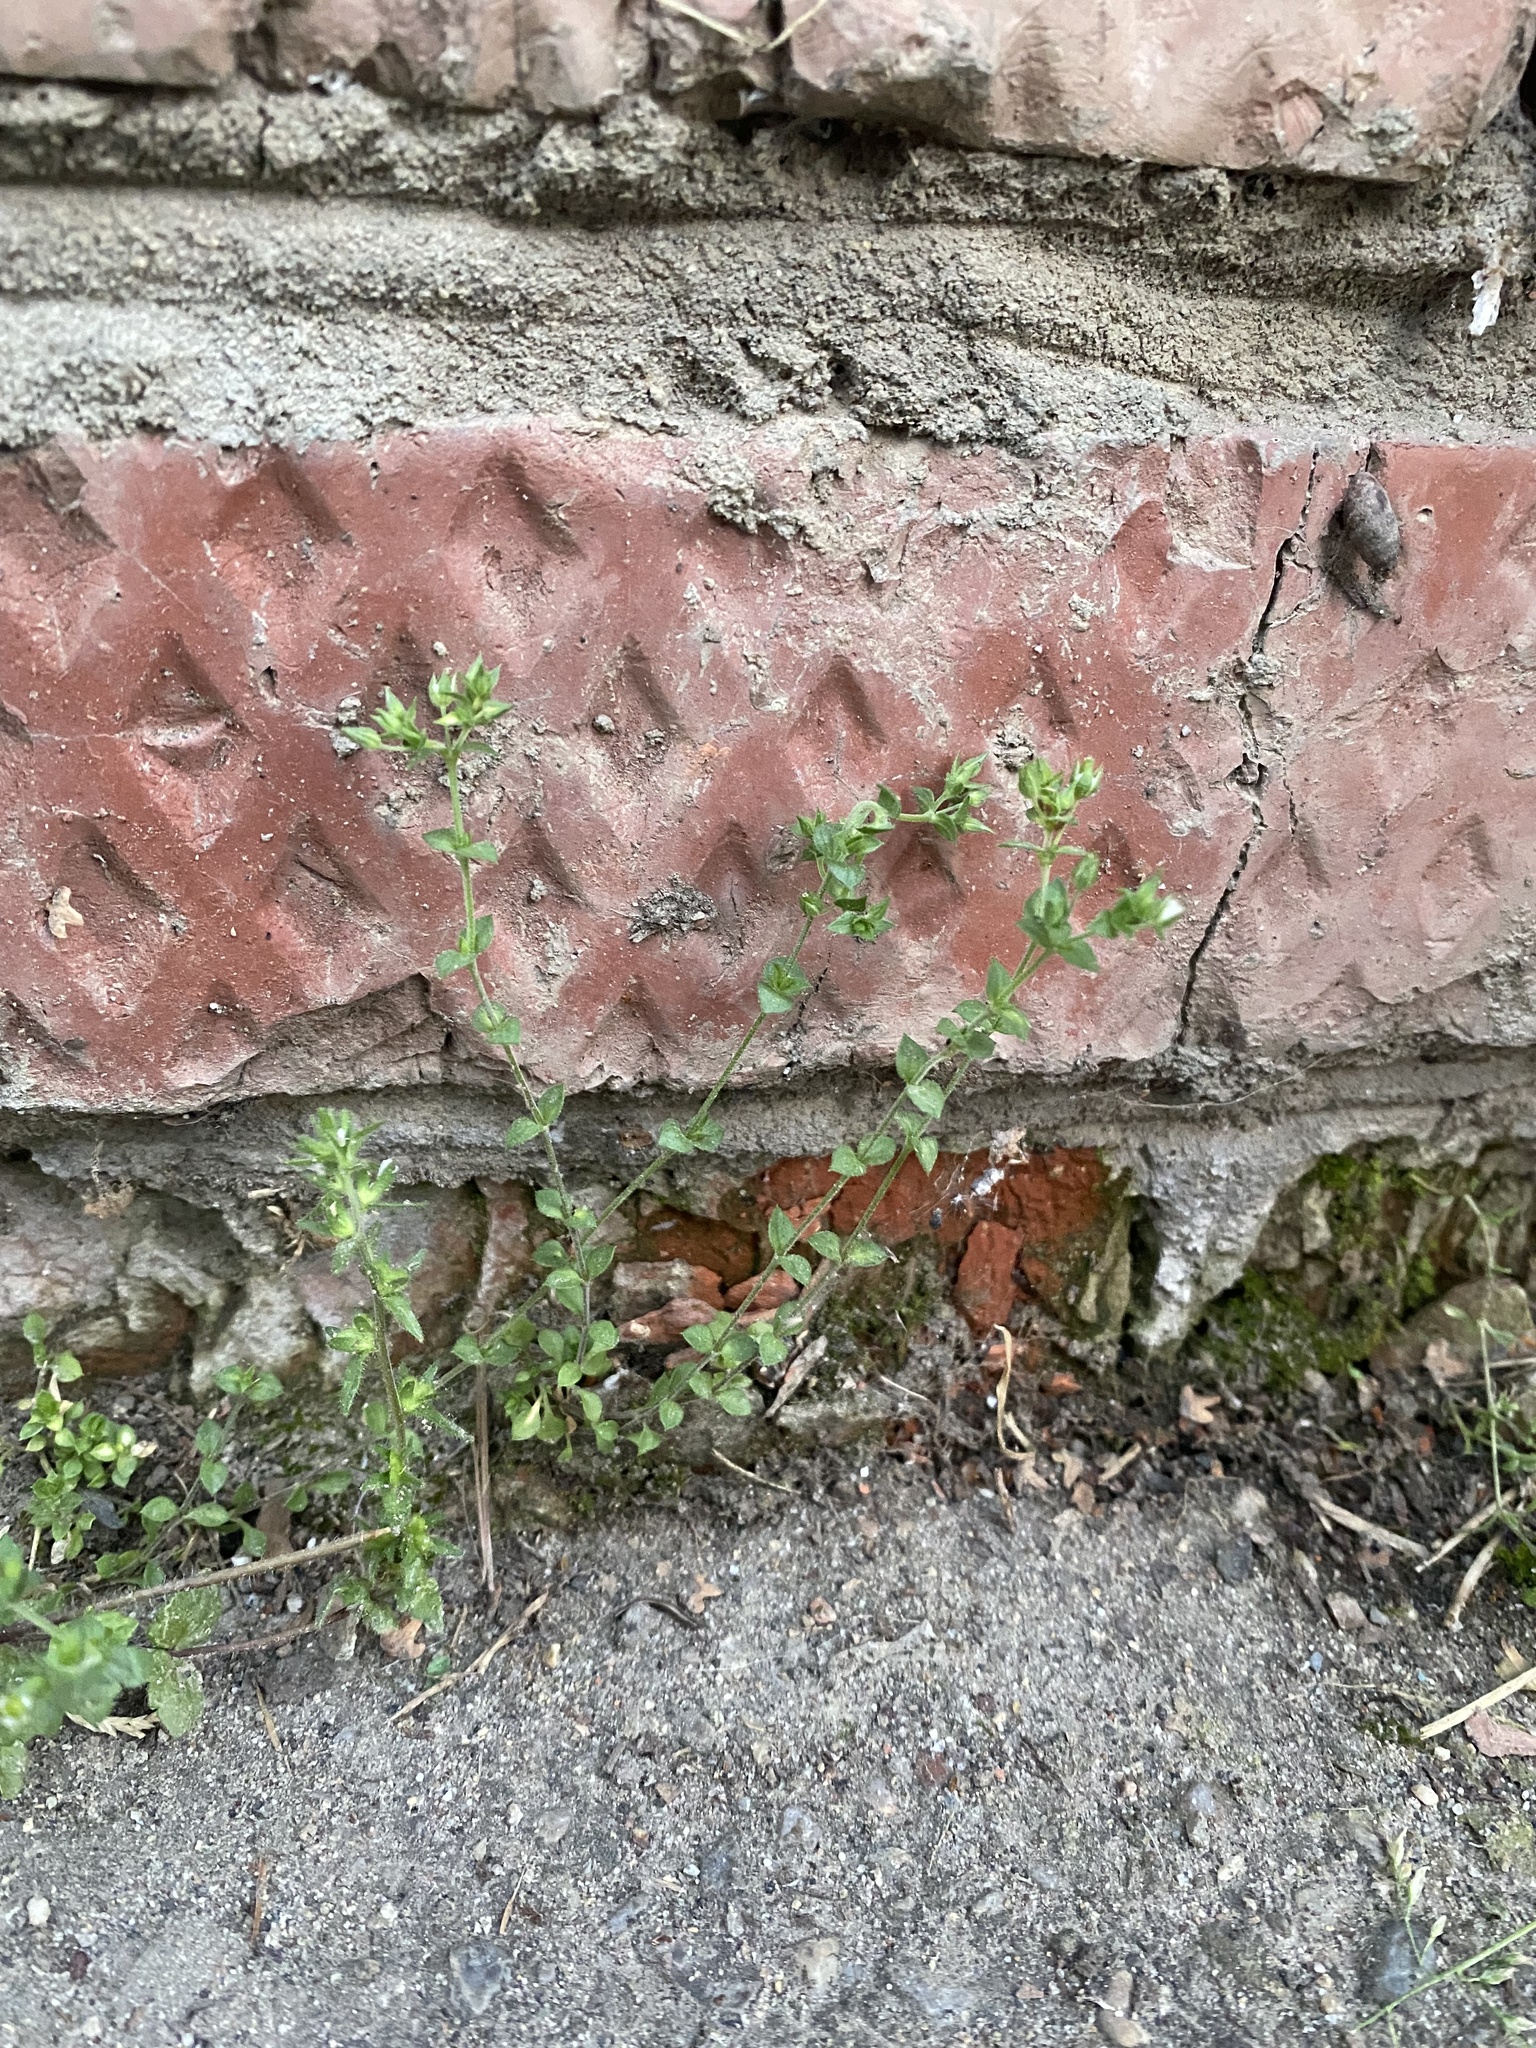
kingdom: Plantae
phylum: Tracheophyta
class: Magnoliopsida
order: Caryophyllales
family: Caryophyllaceae
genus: Arenaria
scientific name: Arenaria serpyllifolia
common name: Thyme-leaved sandwort
